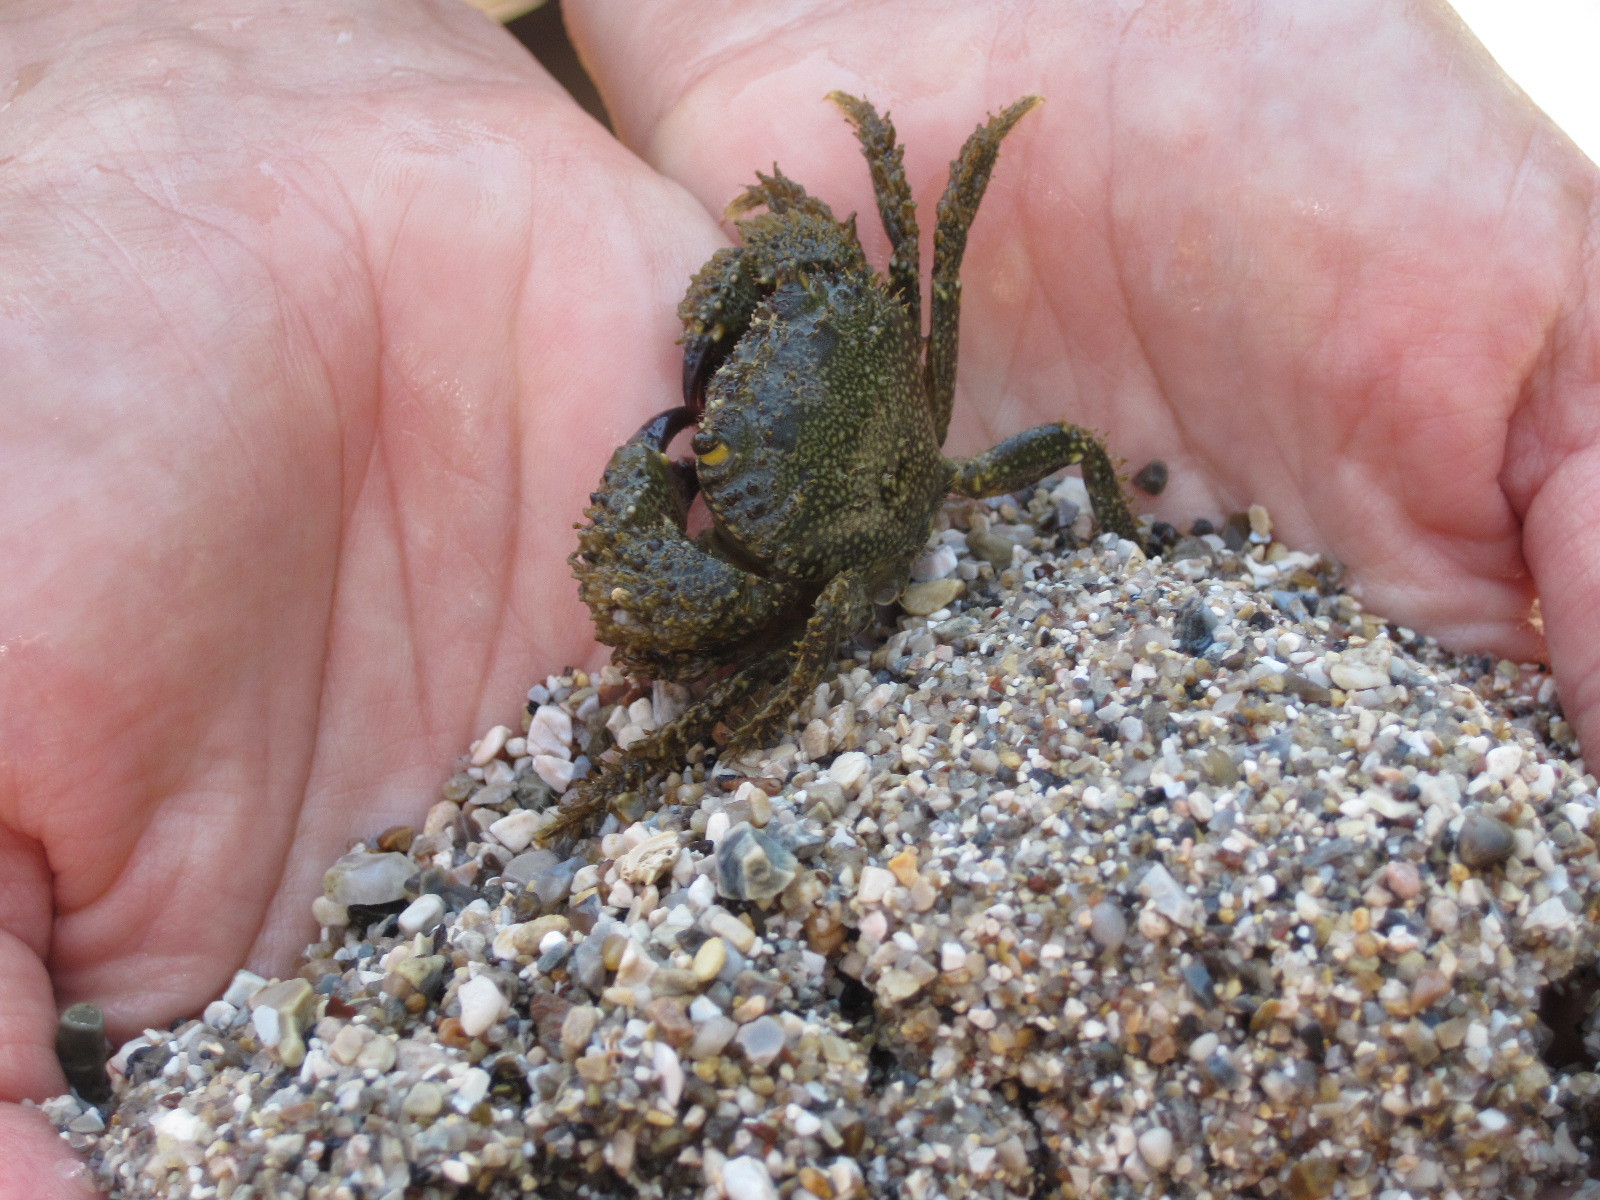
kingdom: Animalia
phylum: Arthropoda
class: Malacostraca
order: Decapoda
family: Eriphiidae
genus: Eriphia
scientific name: Eriphia verrucosa
